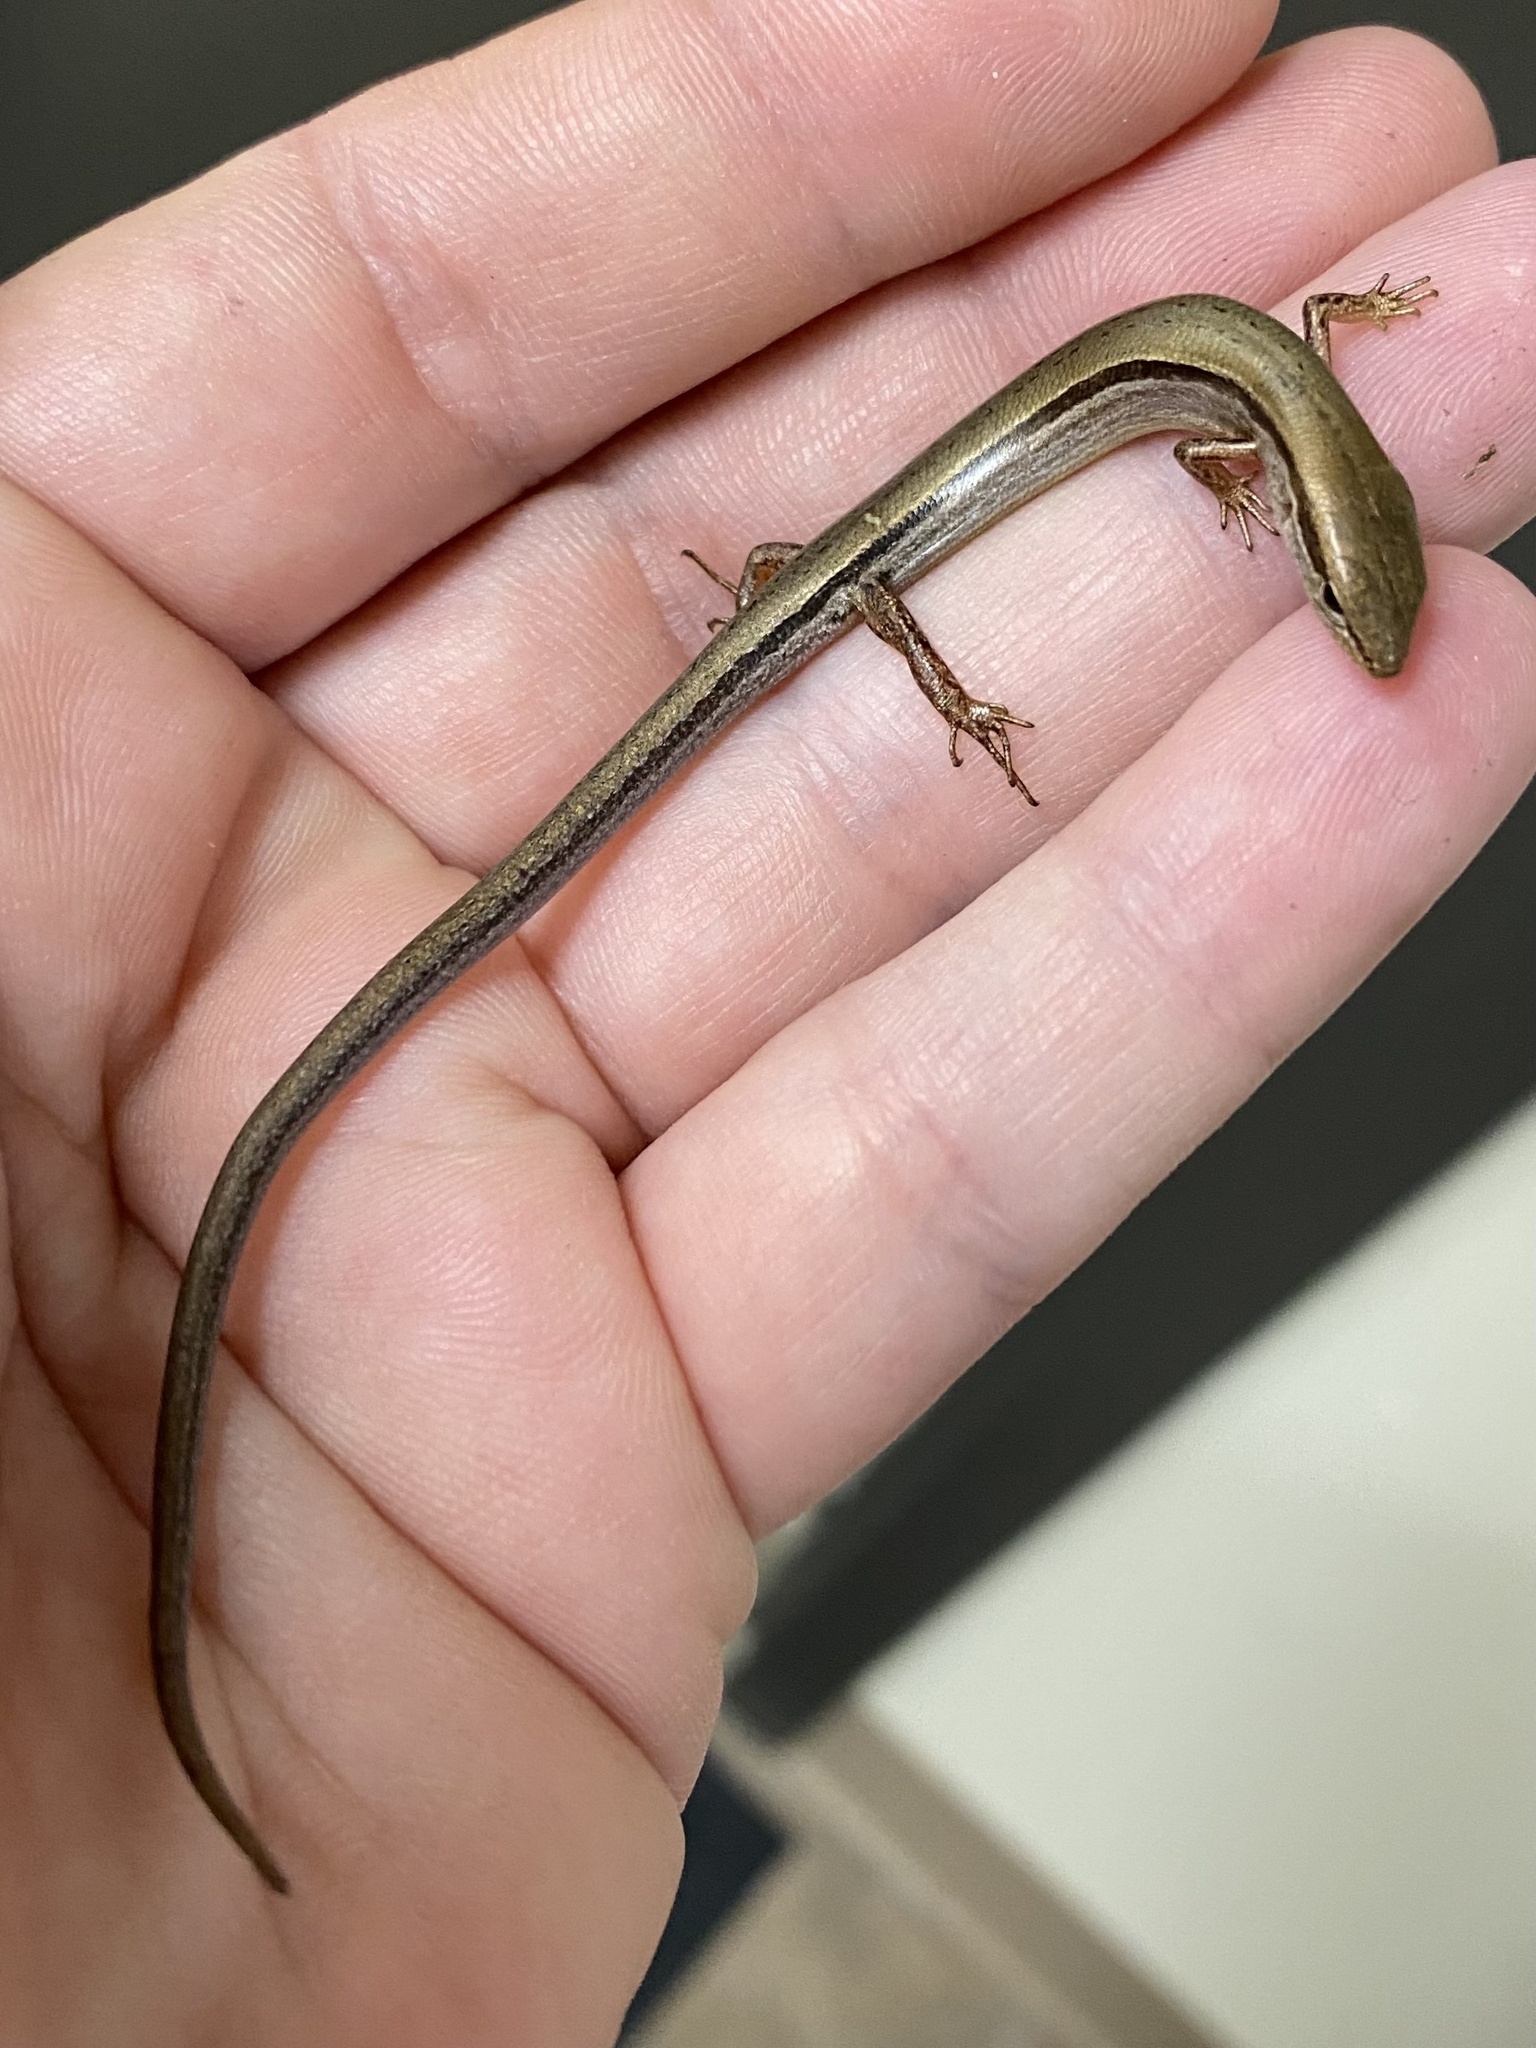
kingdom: Animalia
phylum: Chordata
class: Squamata
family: Scincidae
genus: Scincella
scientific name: Scincella lateralis
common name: Ground skink
